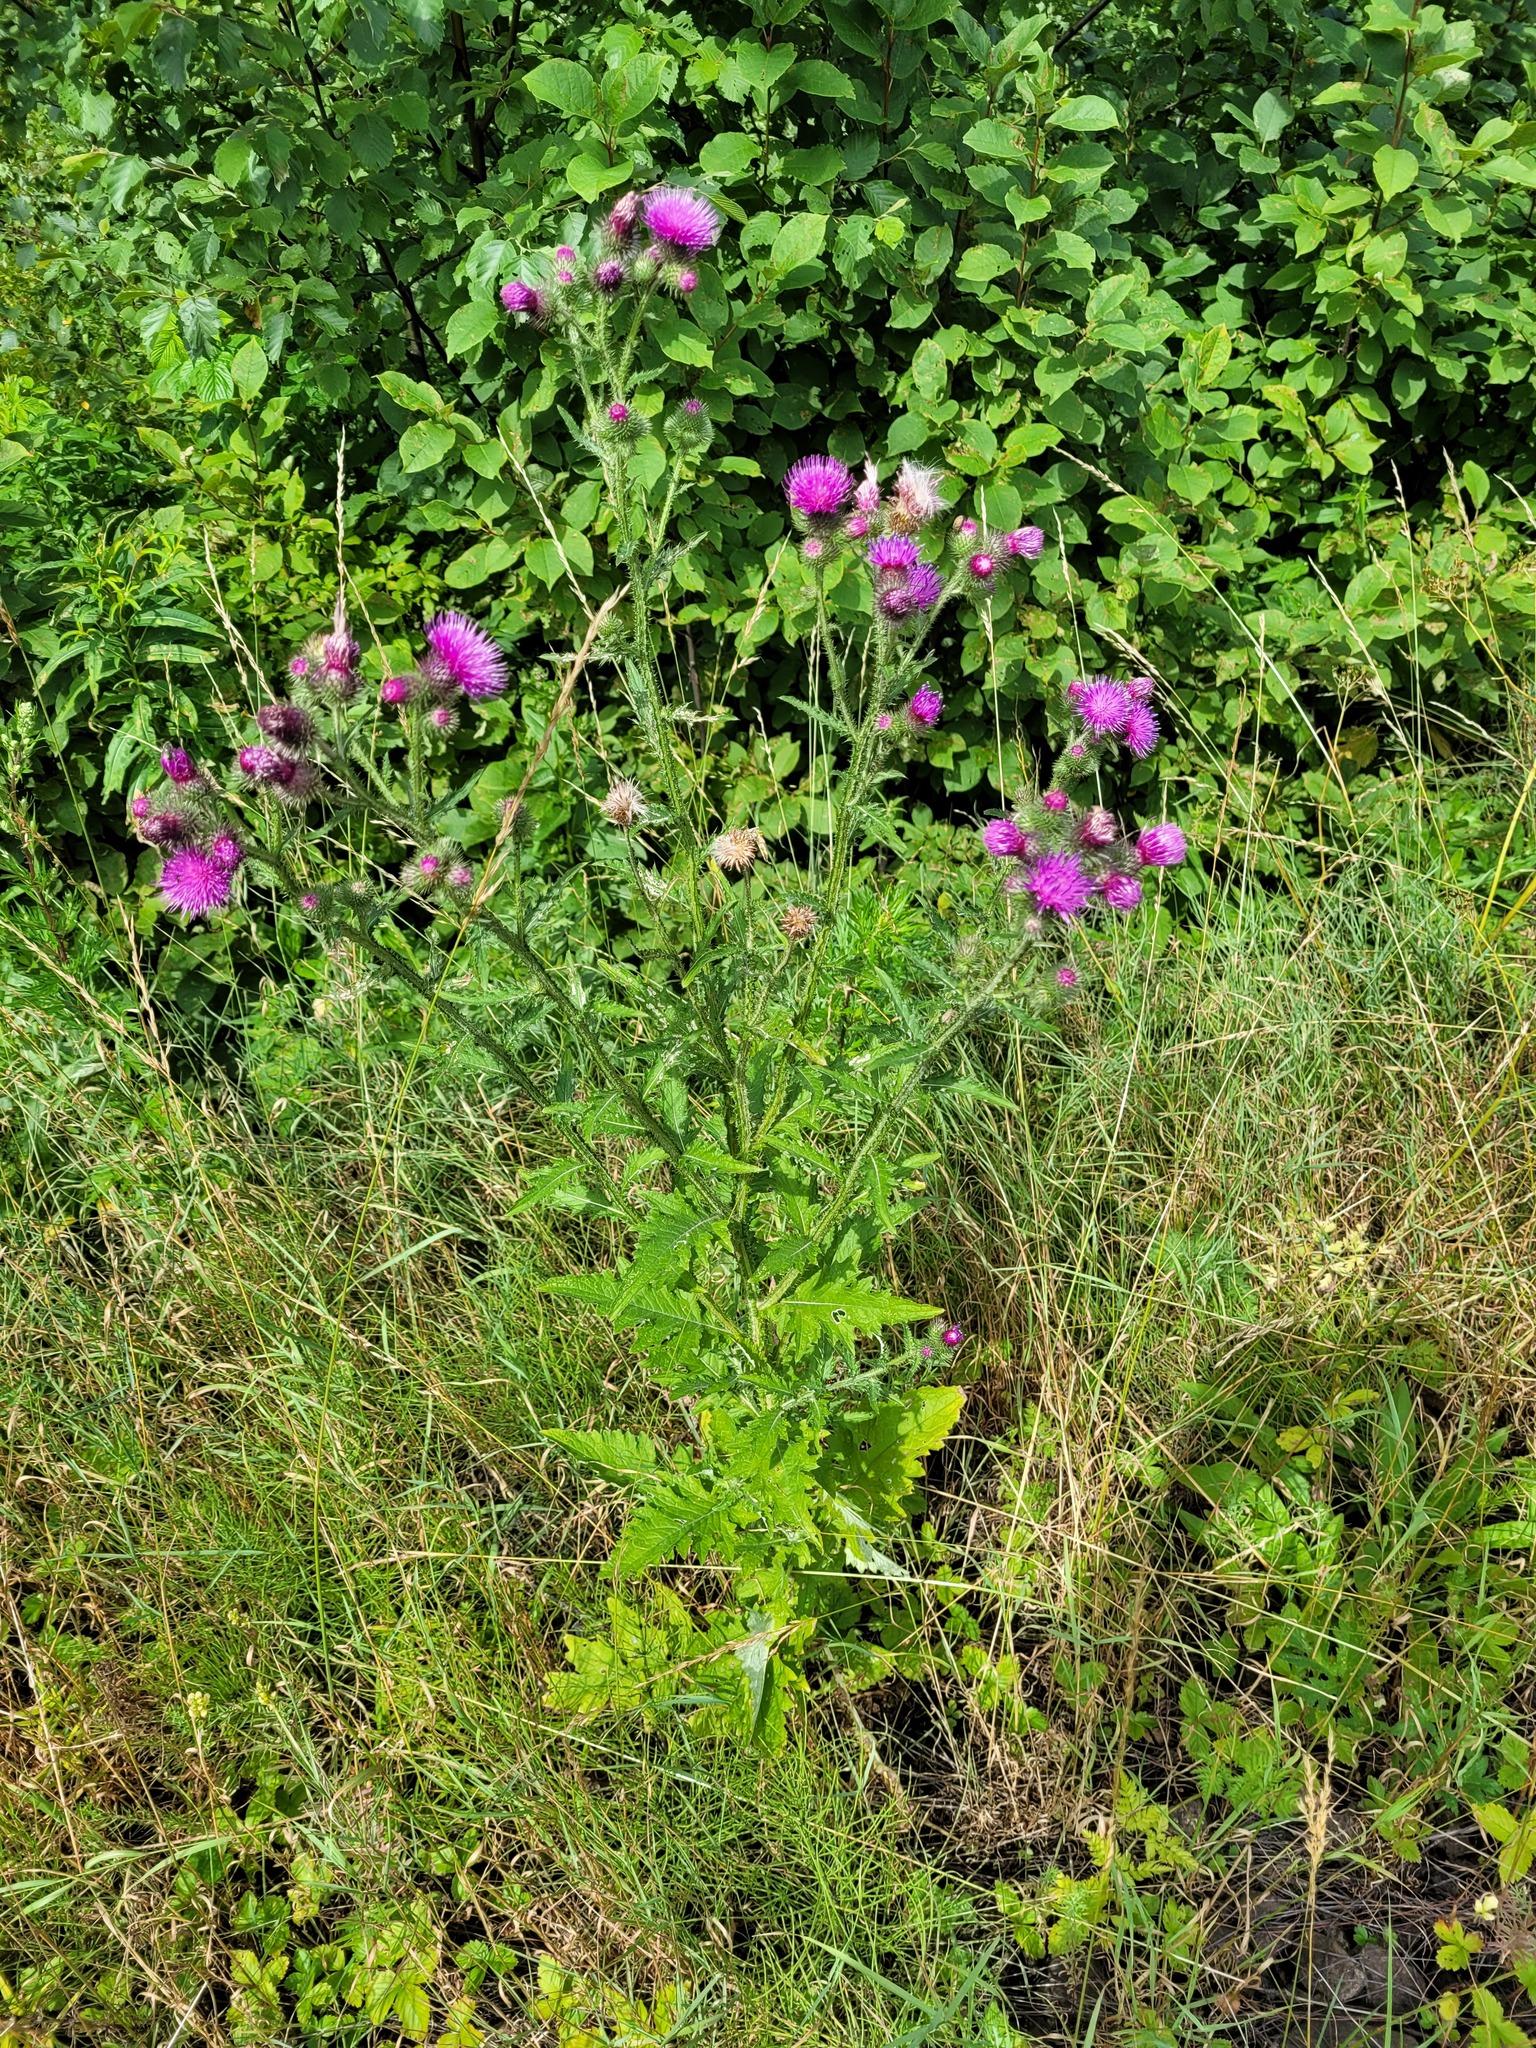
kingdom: Plantae
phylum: Tracheophyta
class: Magnoliopsida
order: Asterales
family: Asteraceae
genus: Carduus
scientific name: Carduus crispus
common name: Welted thistle
